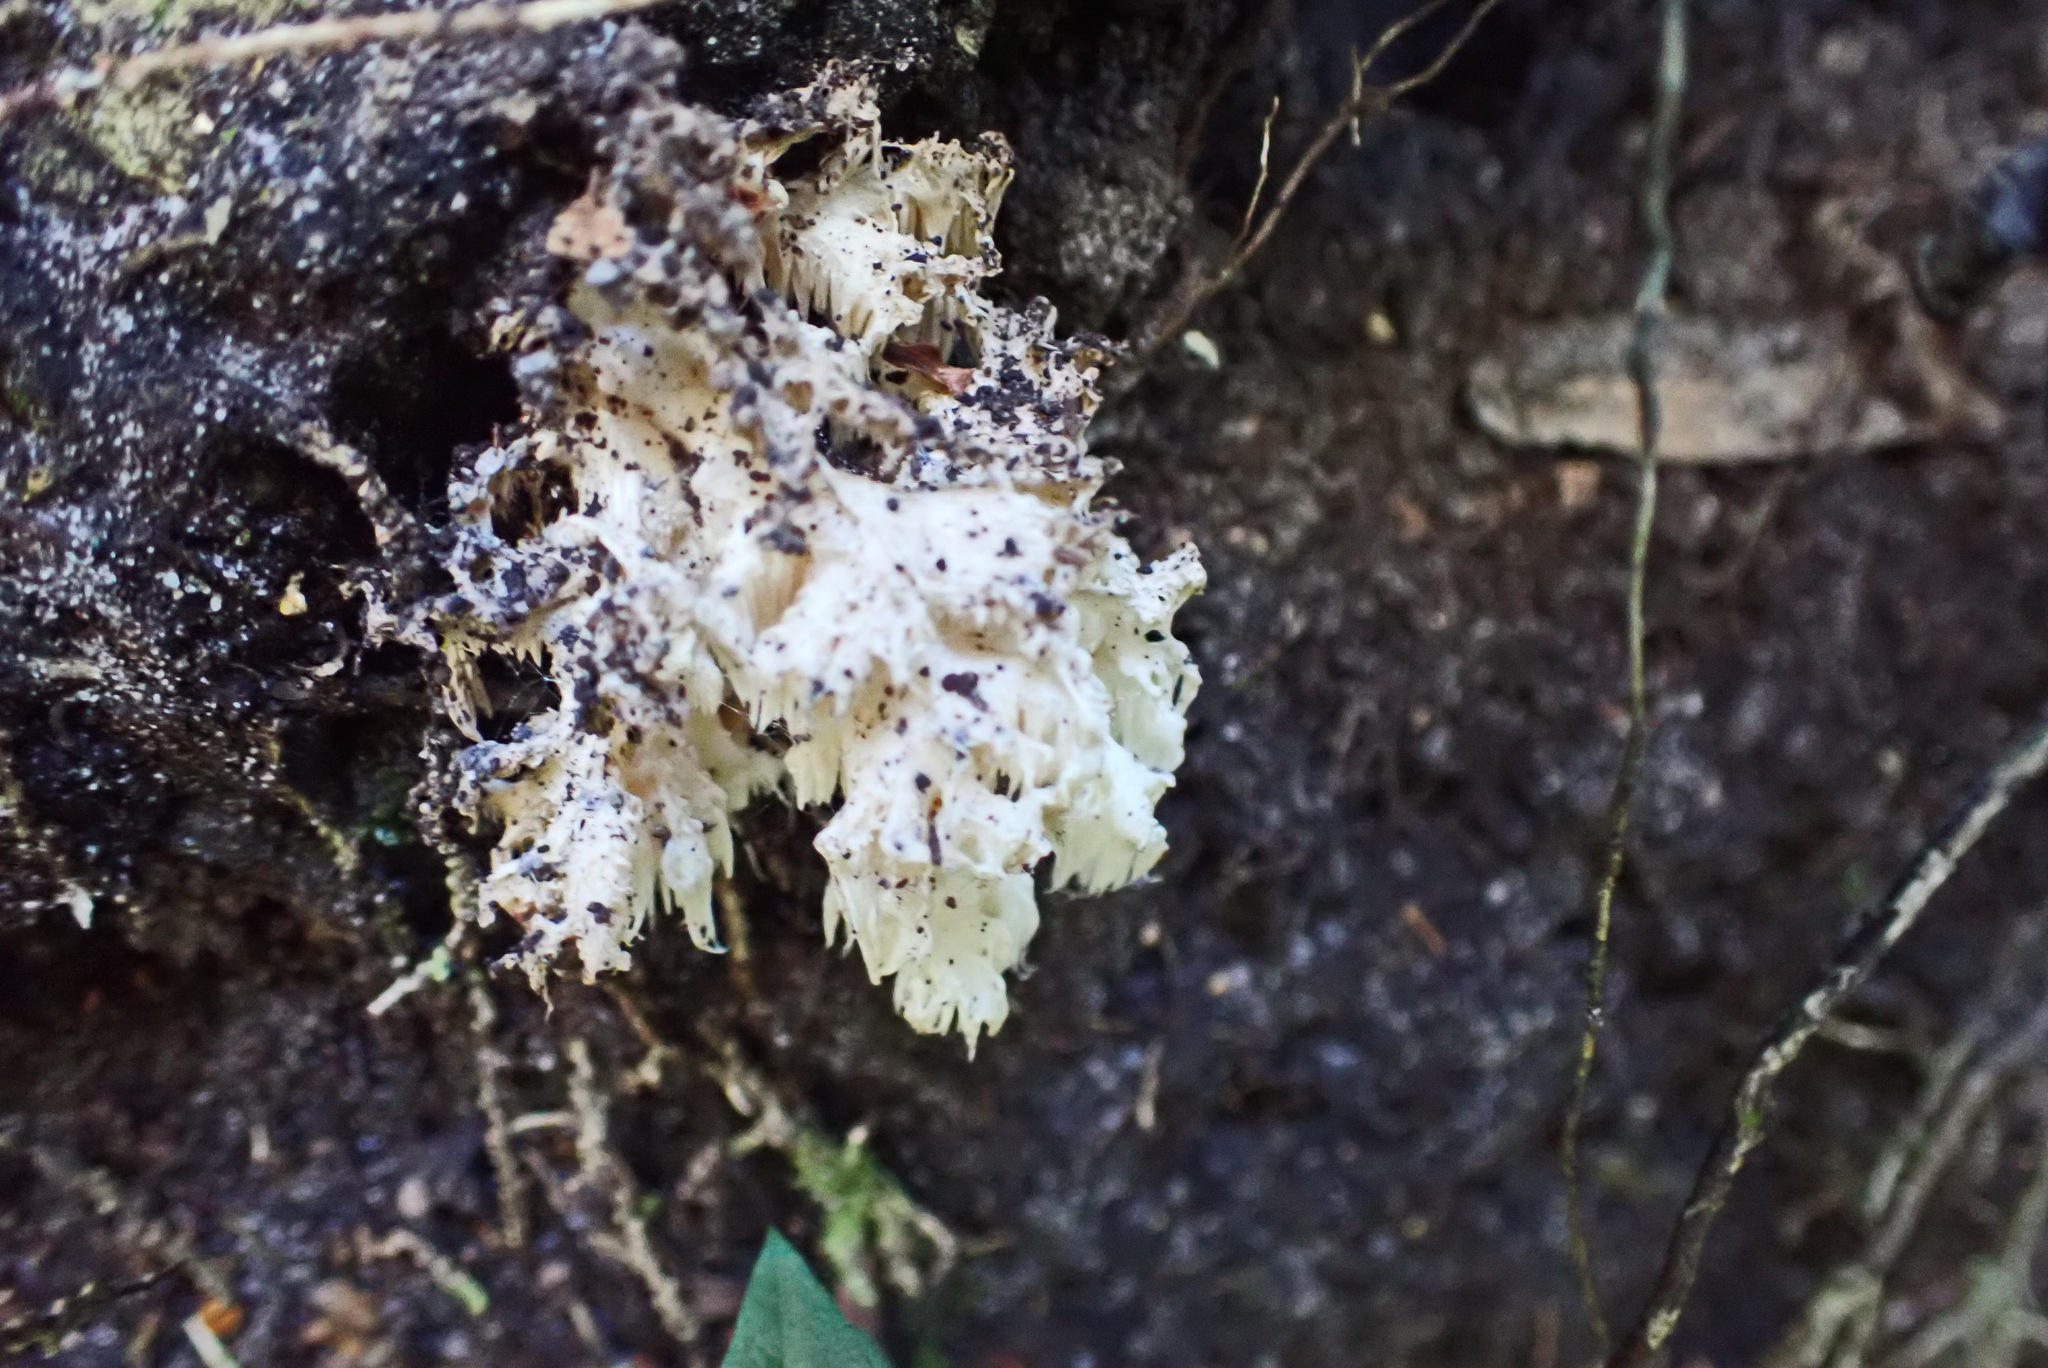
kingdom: Fungi
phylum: Basidiomycota
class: Agaricomycetes
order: Russulales
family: Hericiaceae
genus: Hericium
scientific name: Hericium coralloides
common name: Coral tooth
